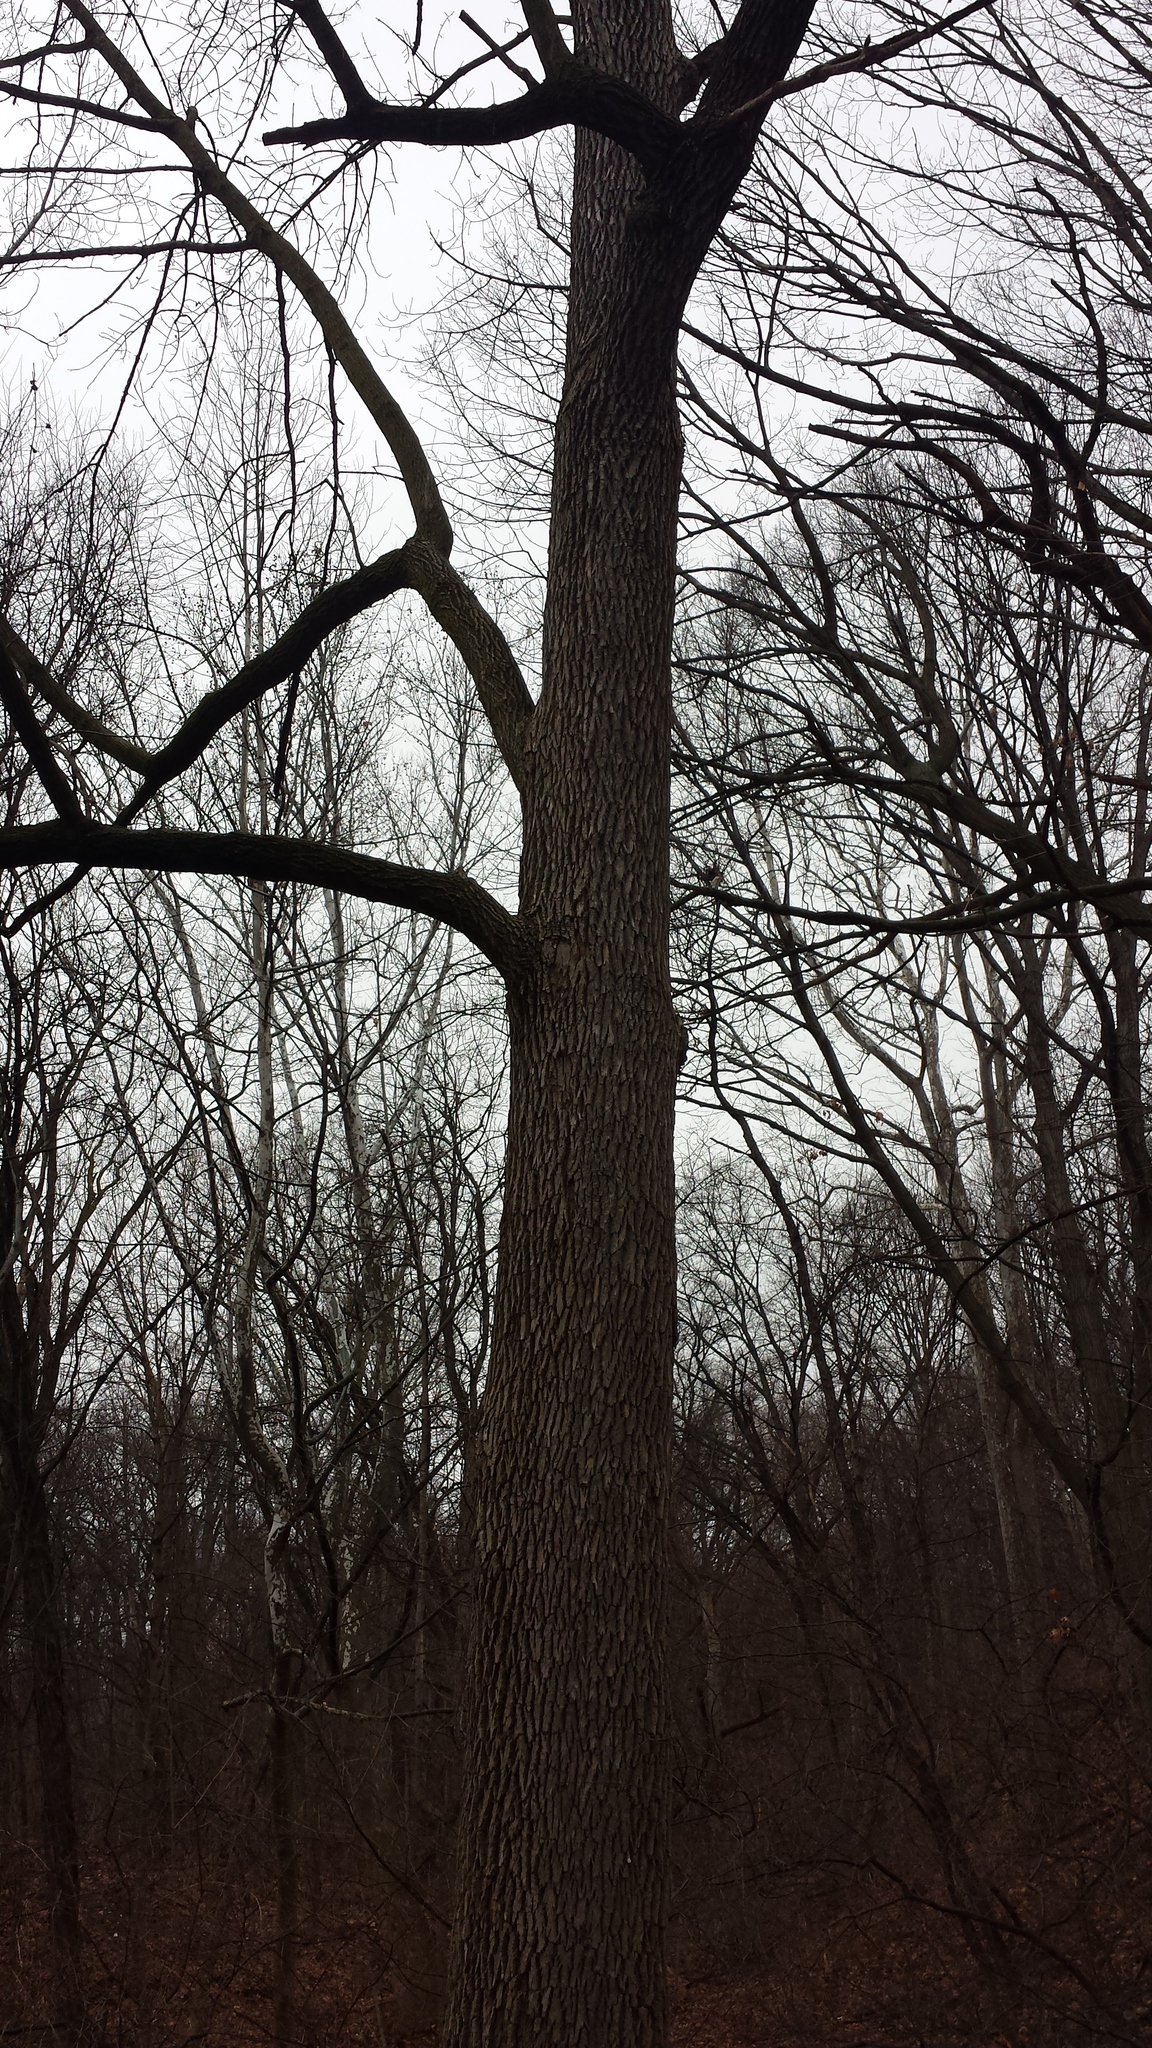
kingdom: Plantae
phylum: Tracheophyta
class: Magnoliopsida
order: Lamiales
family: Oleaceae
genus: Fraxinus
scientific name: Fraxinus profunda
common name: Pumpkin ash
